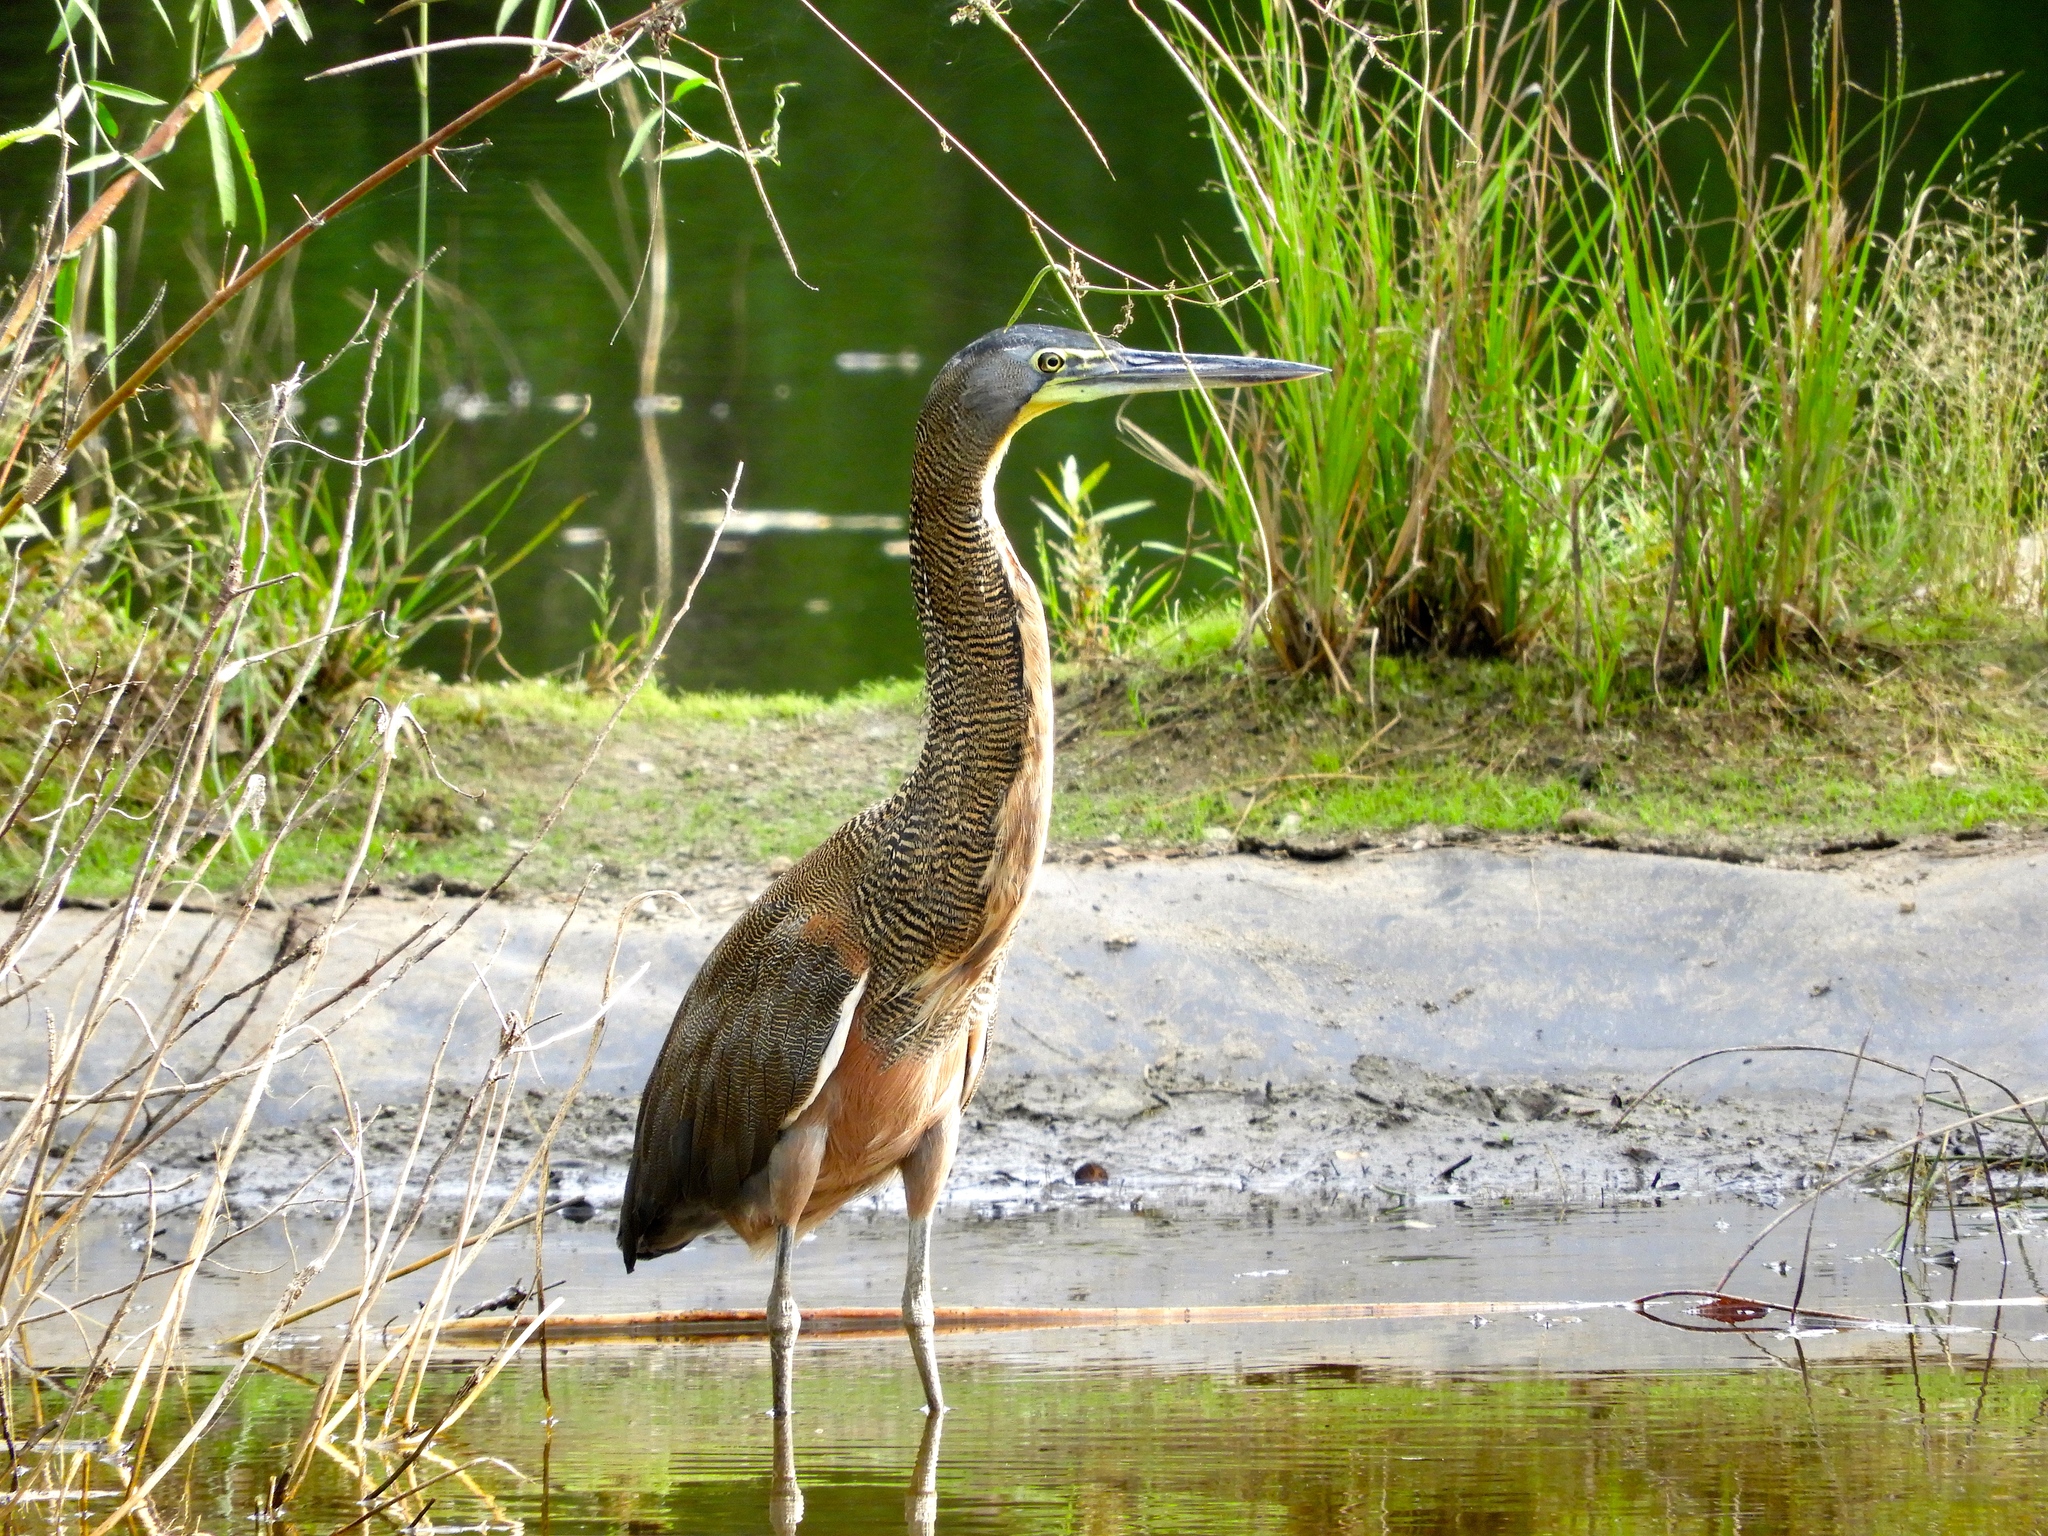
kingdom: Animalia
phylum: Chordata
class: Aves
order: Pelecaniformes
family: Ardeidae
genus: Tigrisoma
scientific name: Tigrisoma mexicanum
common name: Bare-throated tiger-heron
